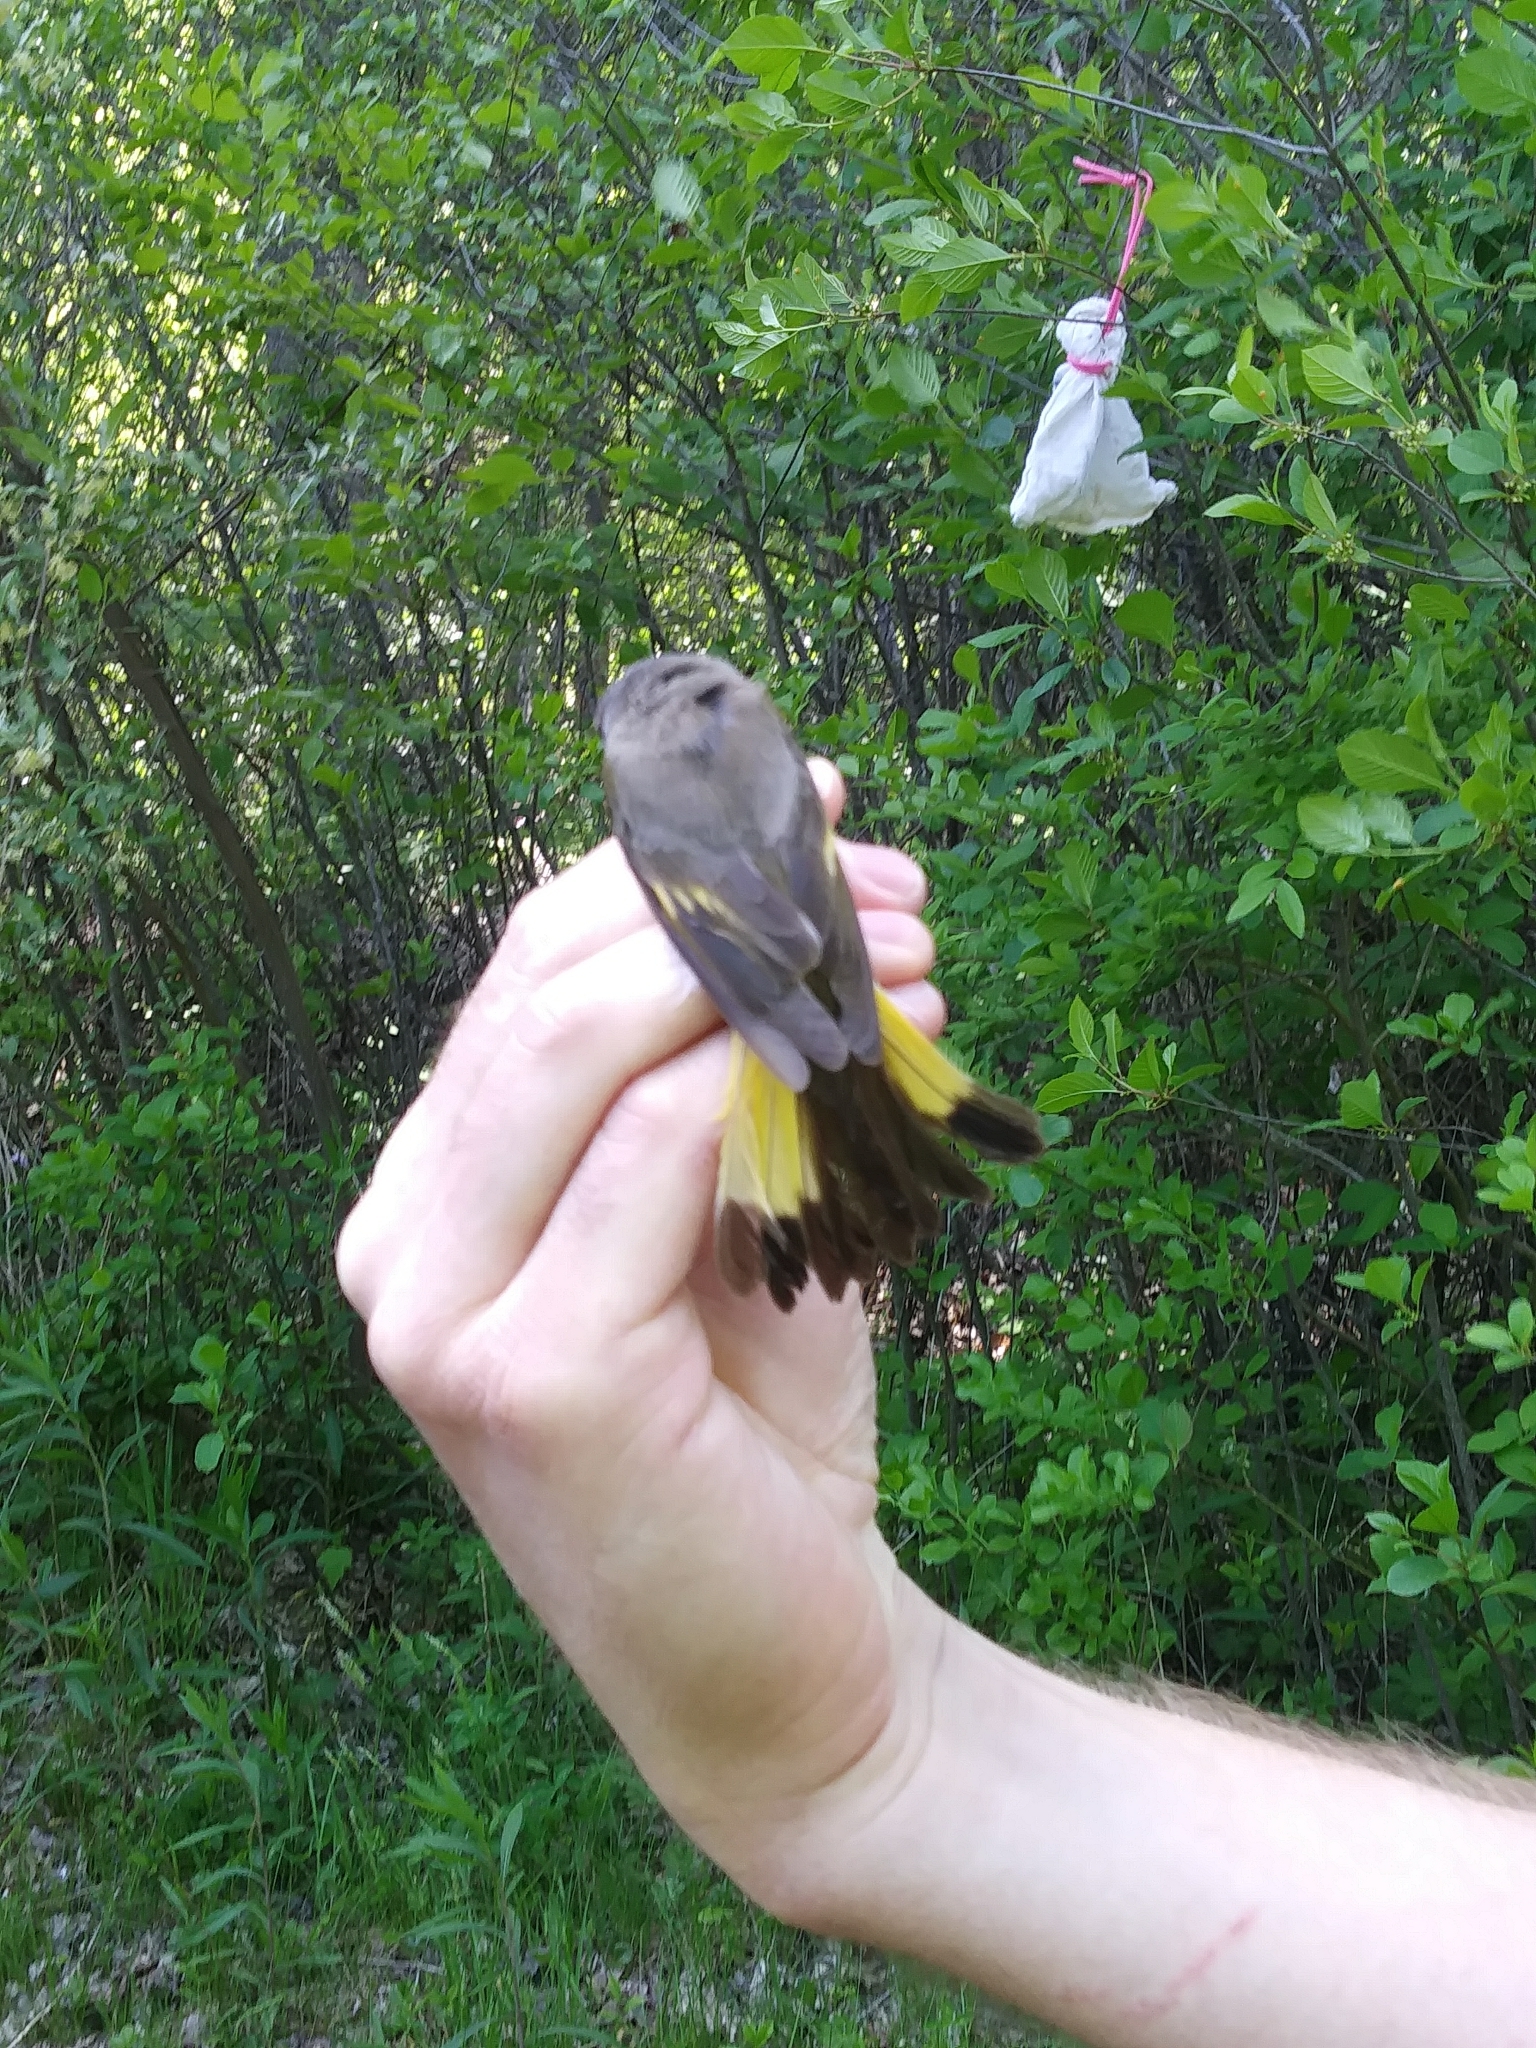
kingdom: Animalia
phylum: Chordata
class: Aves
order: Passeriformes
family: Parulidae
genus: Setophaga
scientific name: Setophaga ruticilla
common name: American redstart
